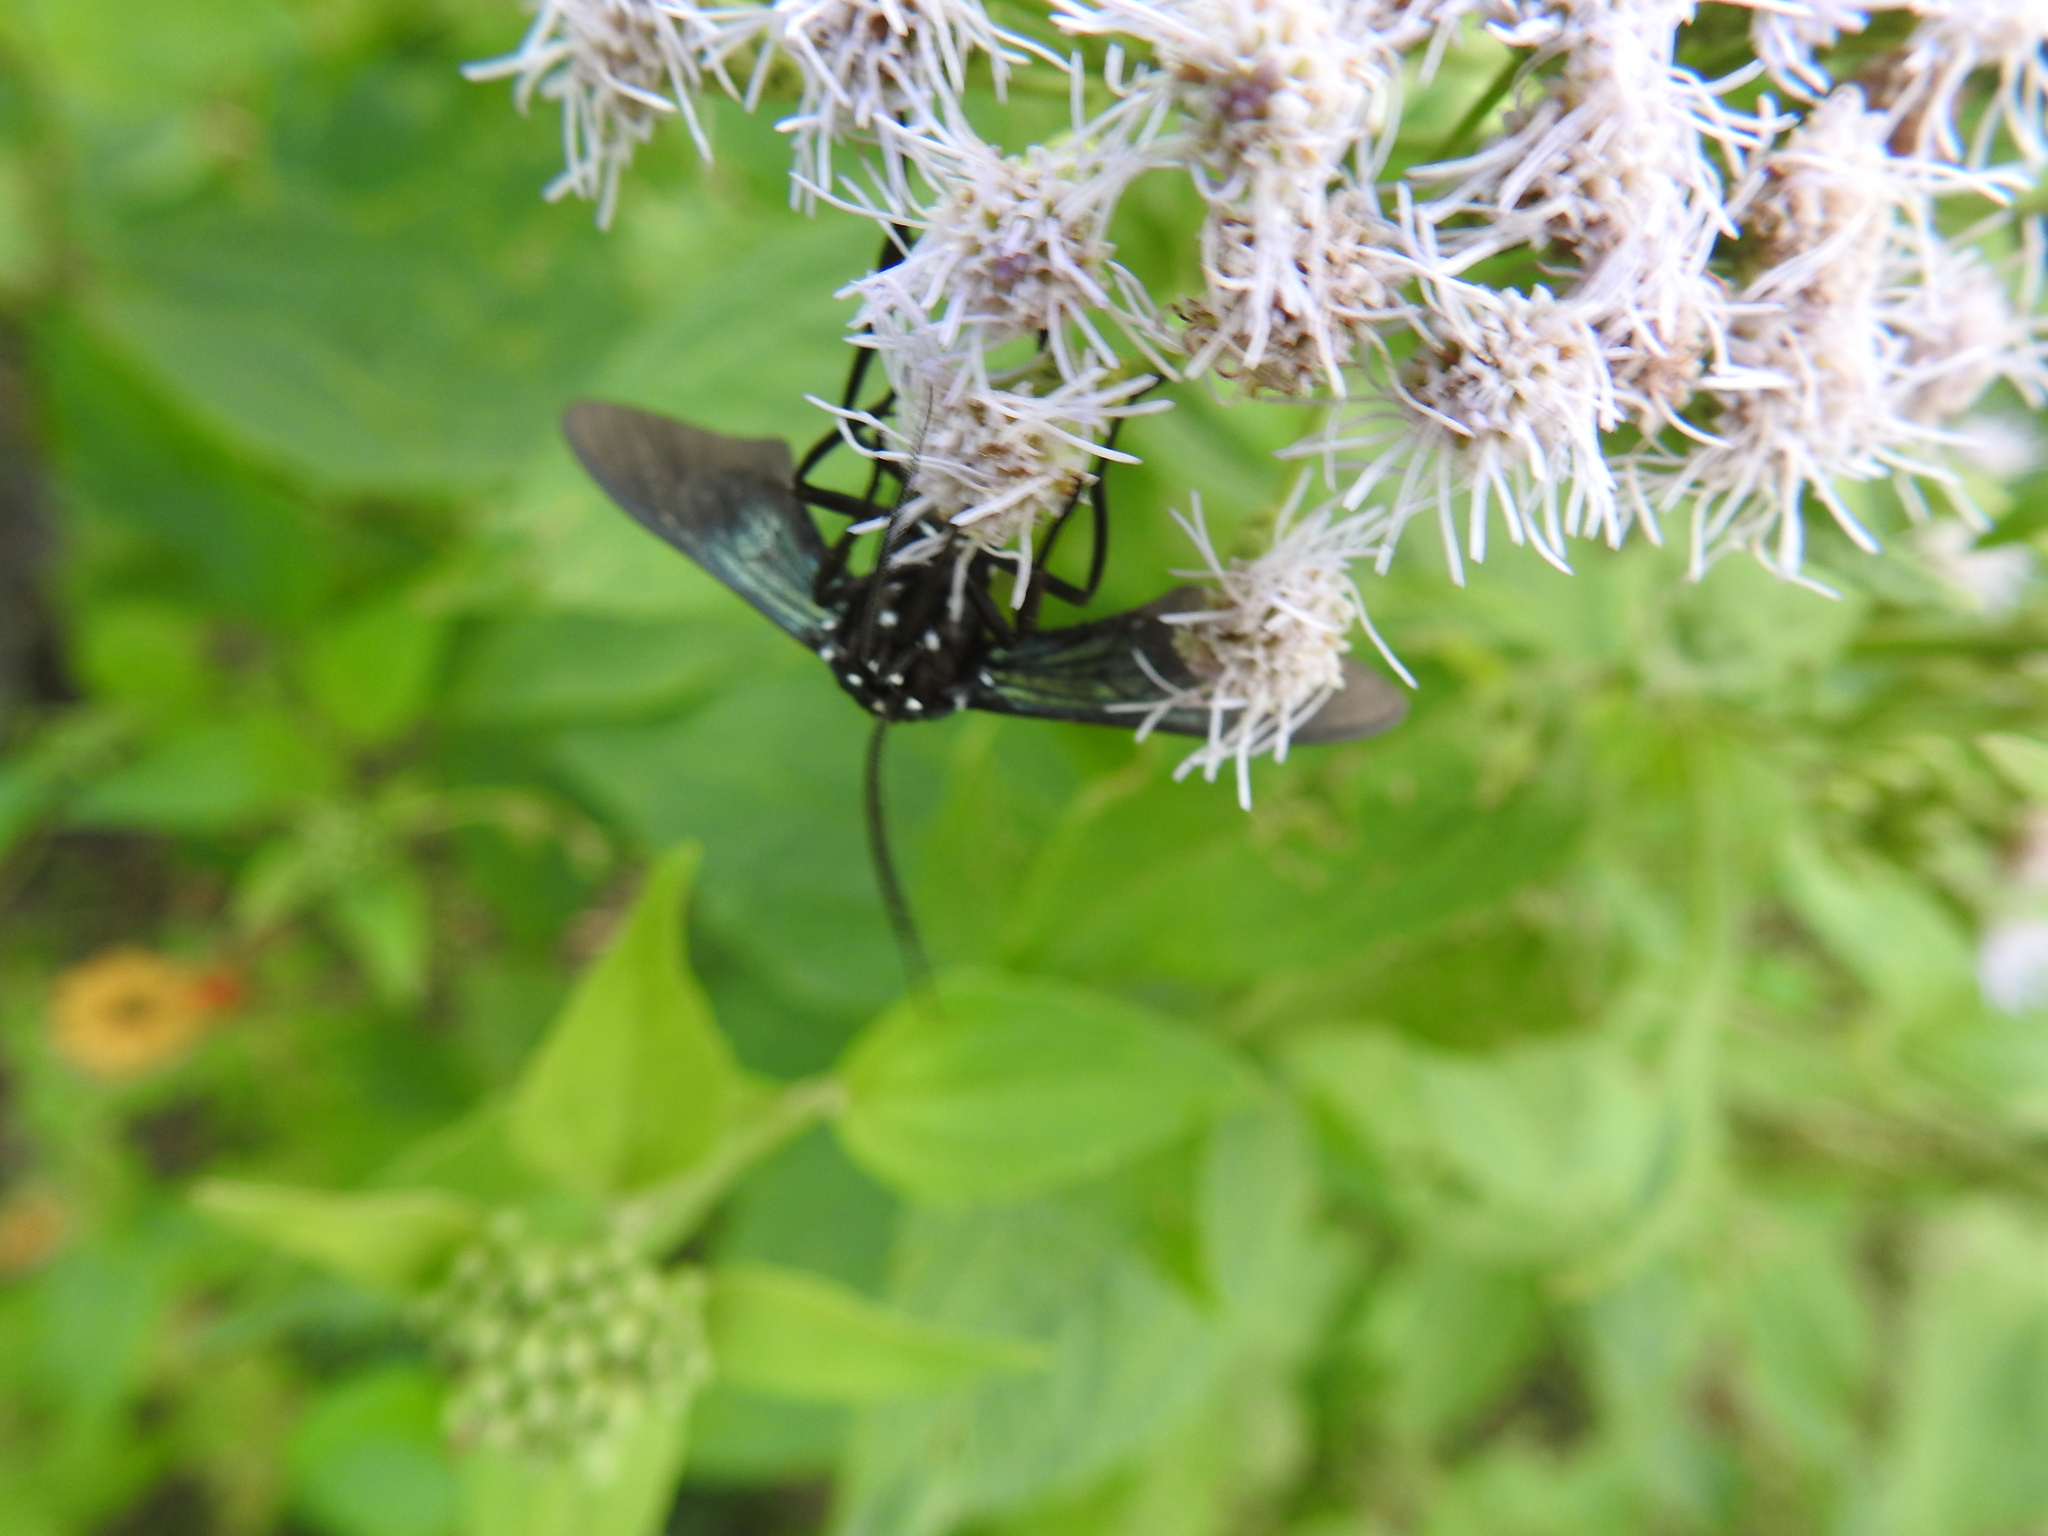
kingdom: Animalia
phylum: Arthropoda
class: Insecta
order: Lepidoptera
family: Erebidae
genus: Macrocneme
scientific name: Macrocneme leucostigma
